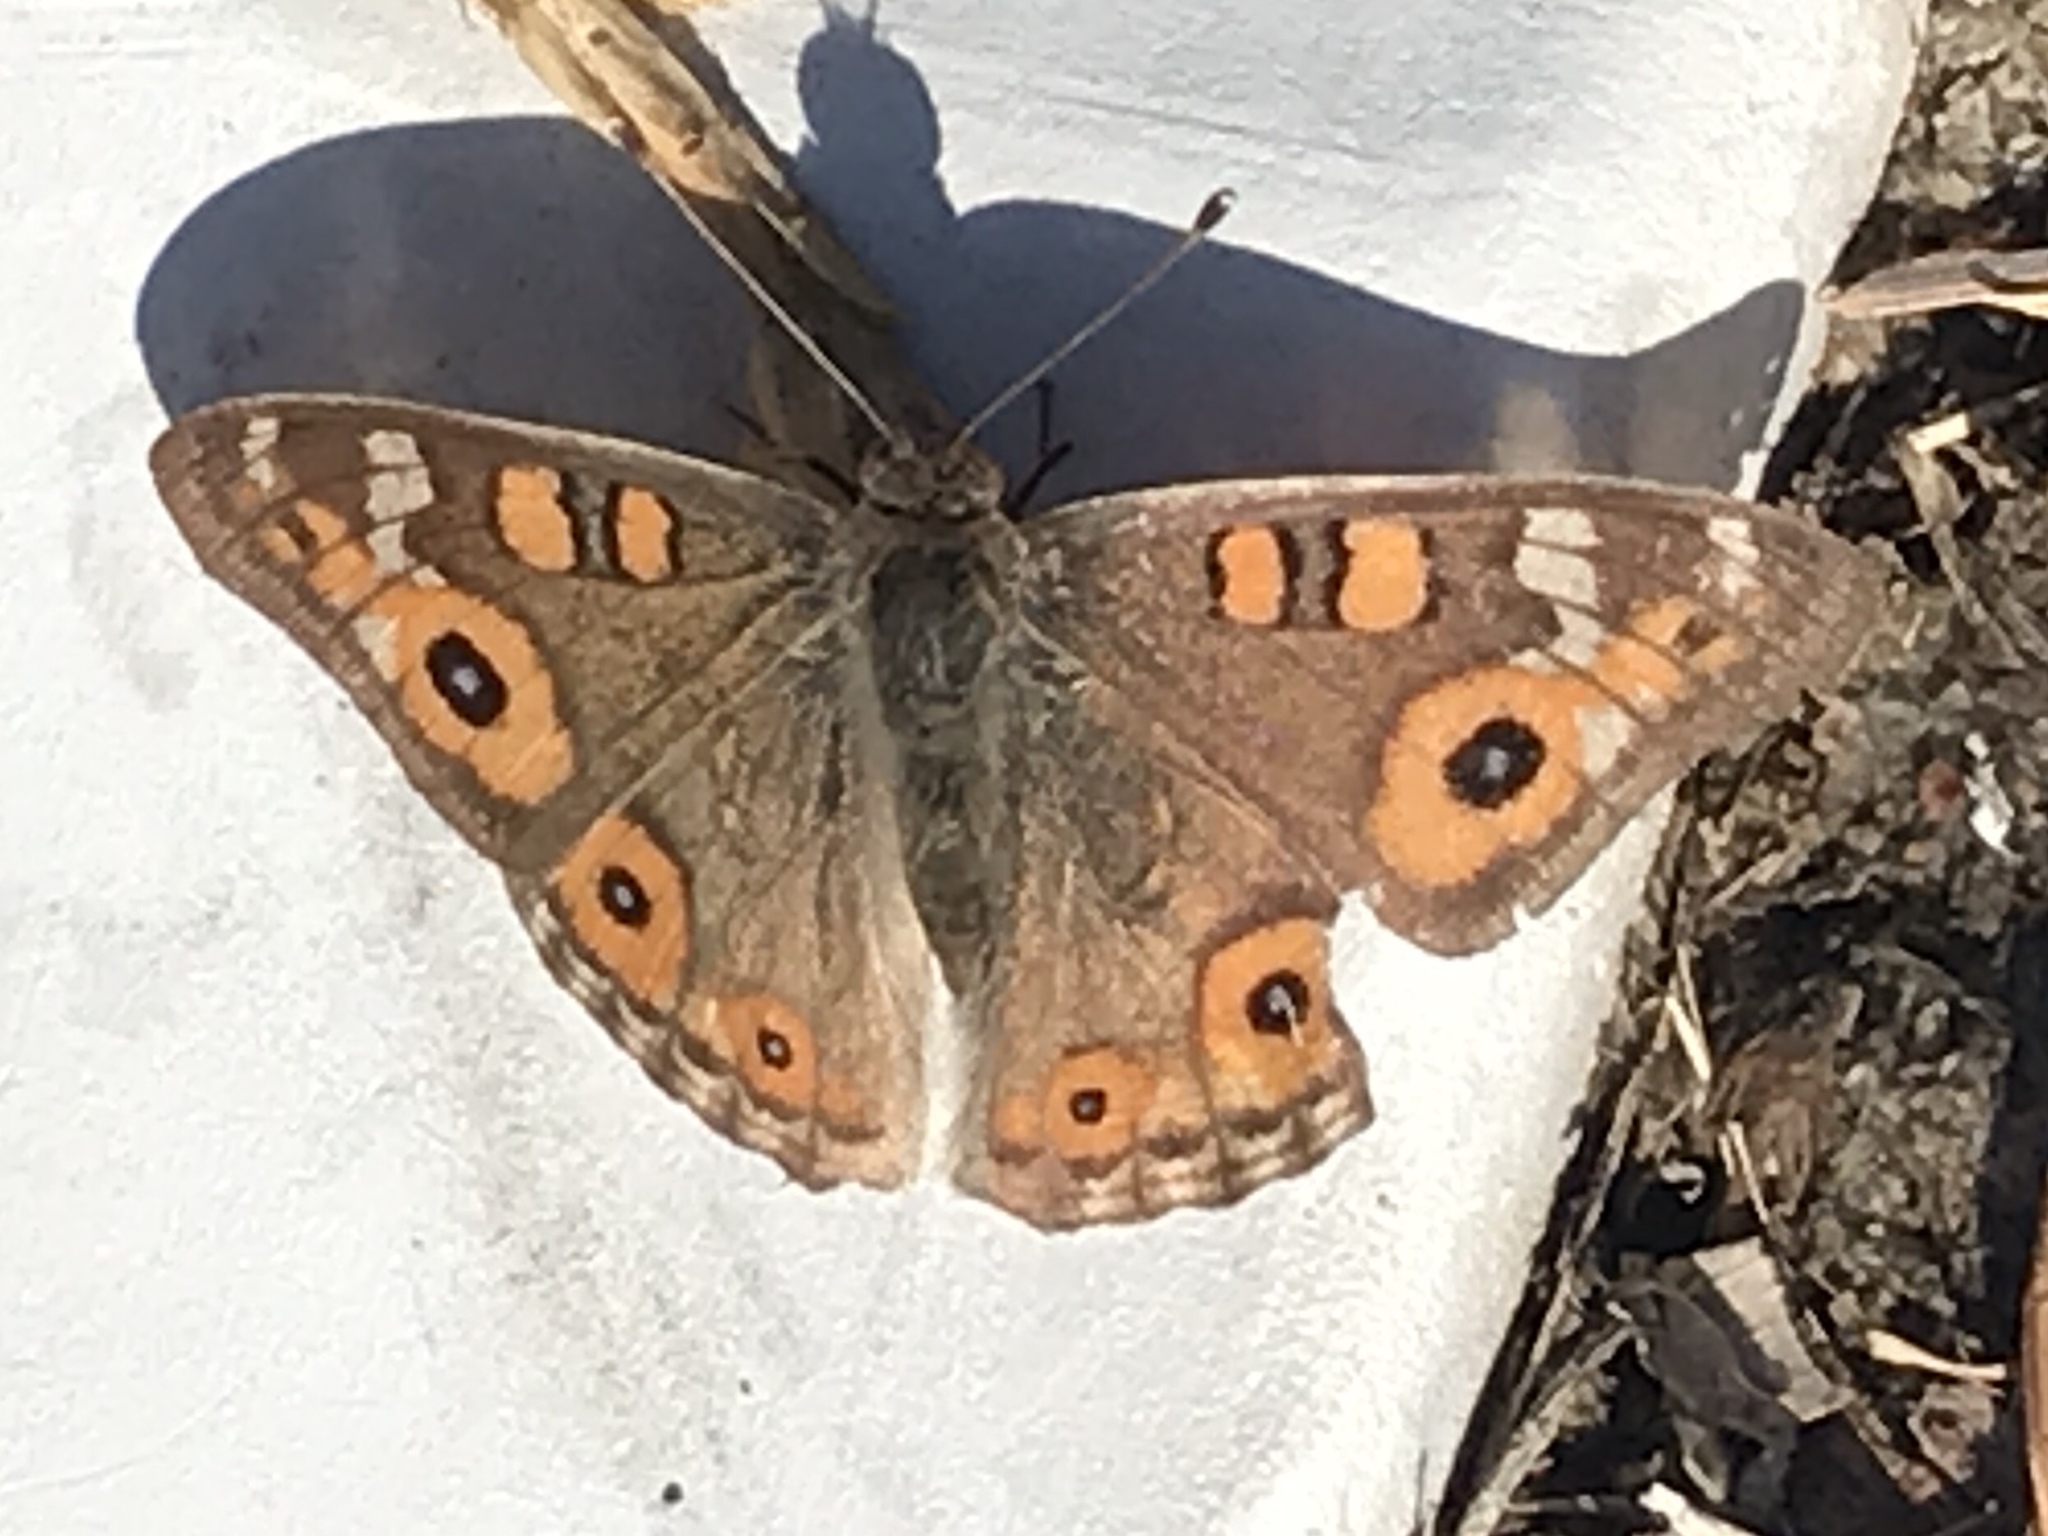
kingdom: Animalia
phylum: Arthropoda
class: Insecta
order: Lepidoptera
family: Nymphalidae
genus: Junonia
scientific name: Junonia villida
